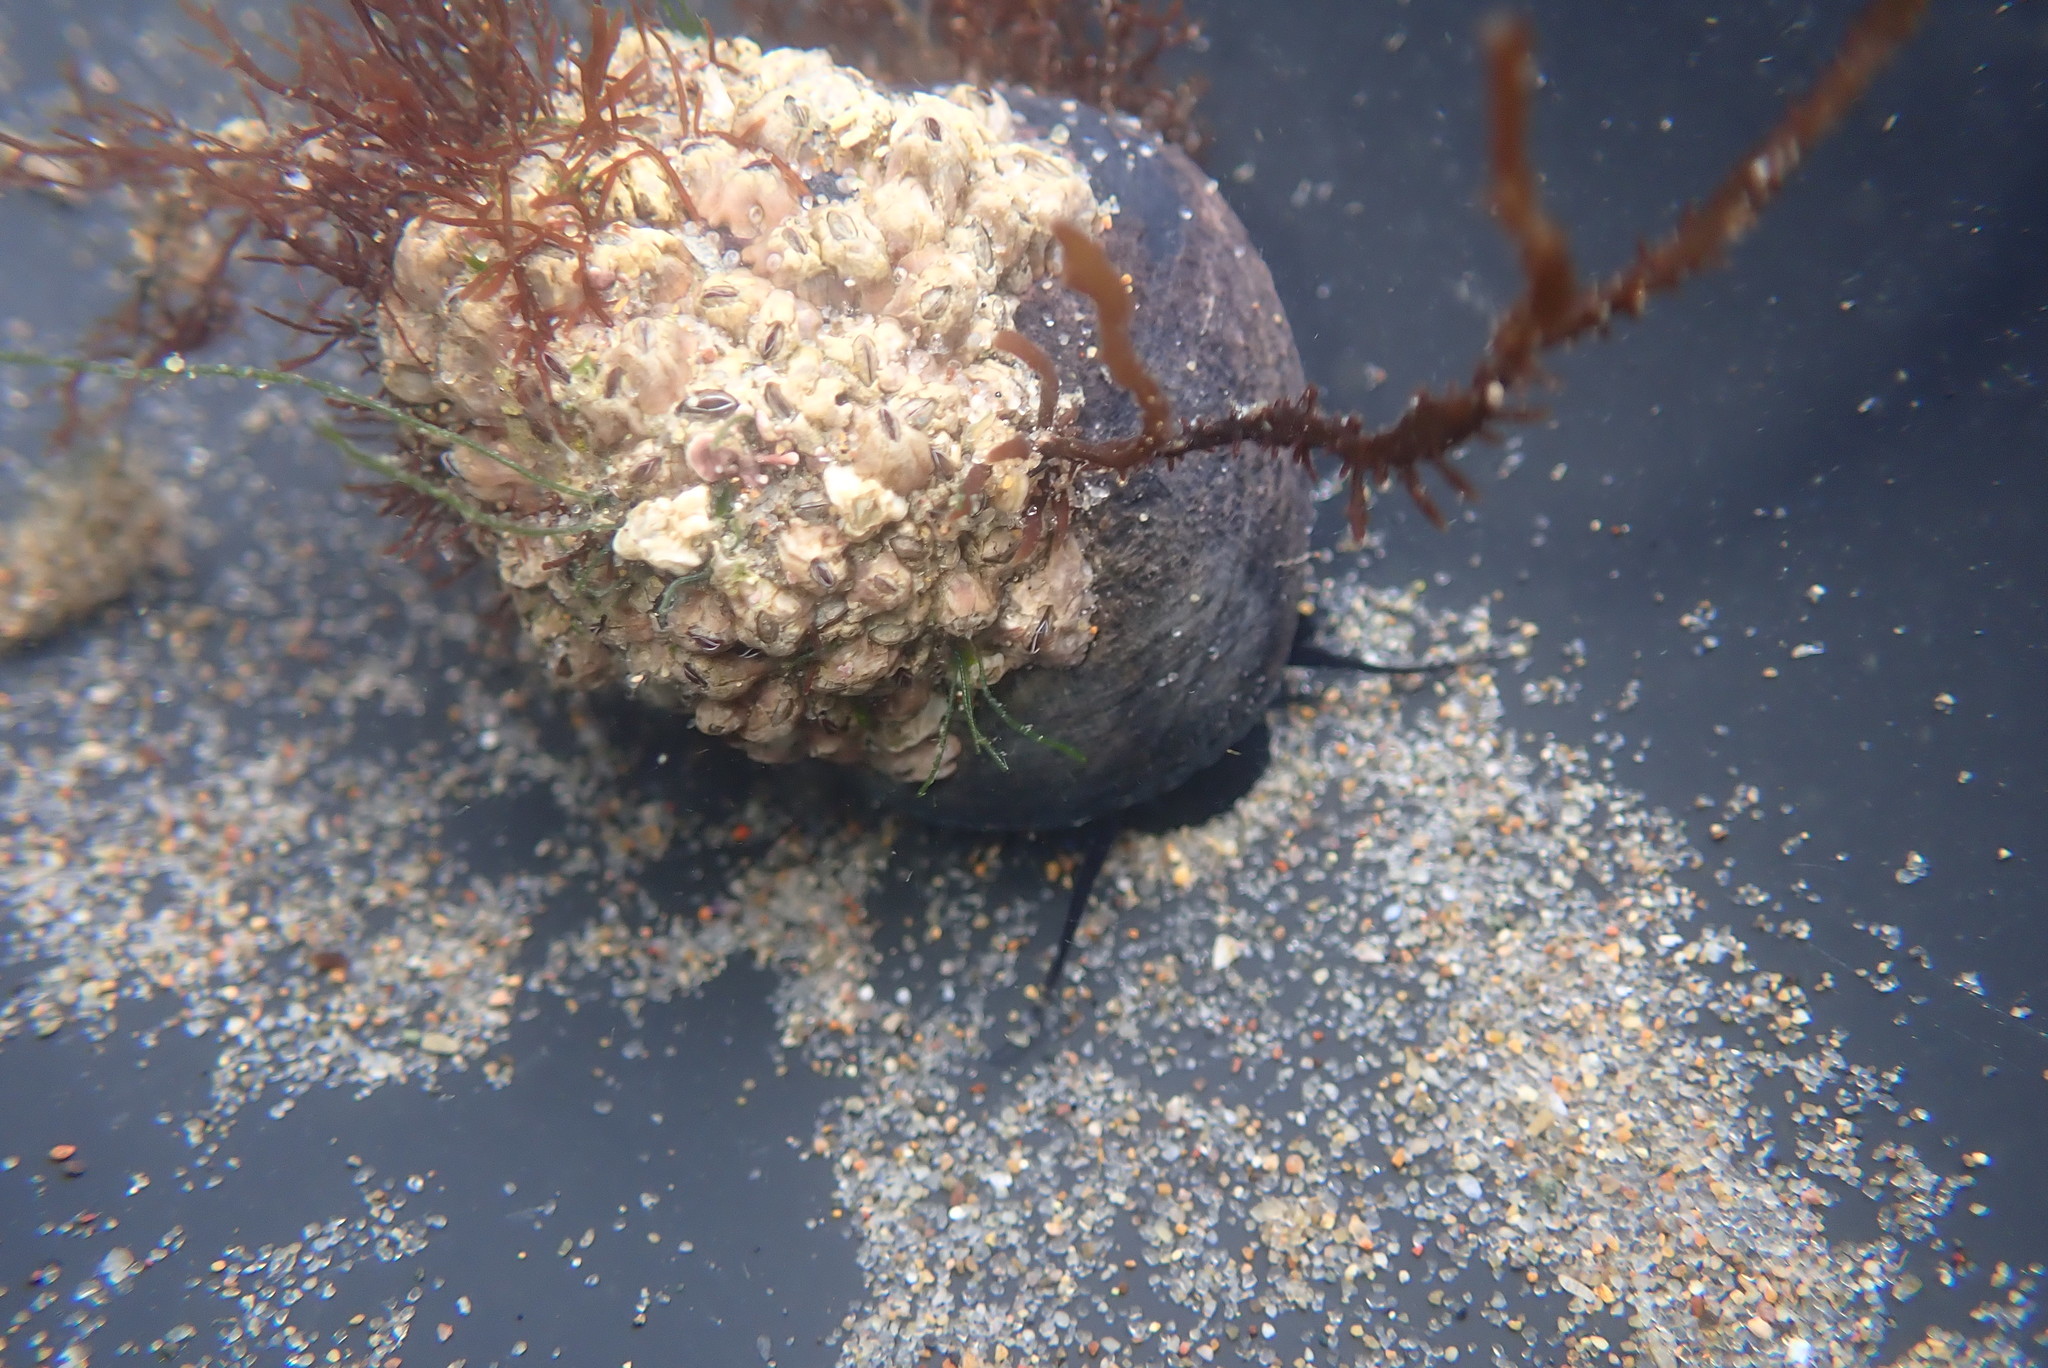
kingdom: Animalia
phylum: Mollusca
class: Gastropoda
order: Trochida
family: Tegulidae
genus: Tegula
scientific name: Tegula funebralis
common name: Black tegula
